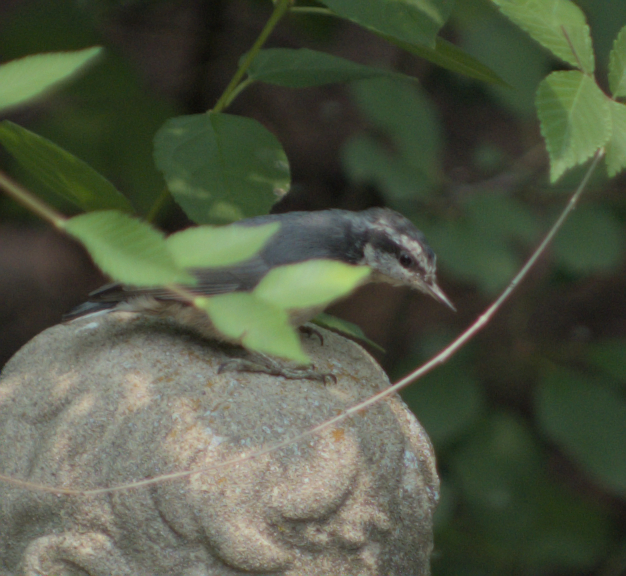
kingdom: Animalia
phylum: Chordata
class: Aves
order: Passeriformes
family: Sittidae
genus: Sitta
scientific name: Sitta canadensis
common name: Red-breasted nuthatch
